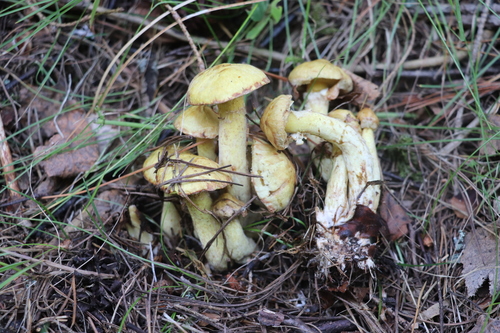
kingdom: Fungi
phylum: Basidiomycota
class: Agaricomycetes
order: Boletales
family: Suillaceae
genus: Suillus
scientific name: Suillus americanus
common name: Chicken fat mushroom
